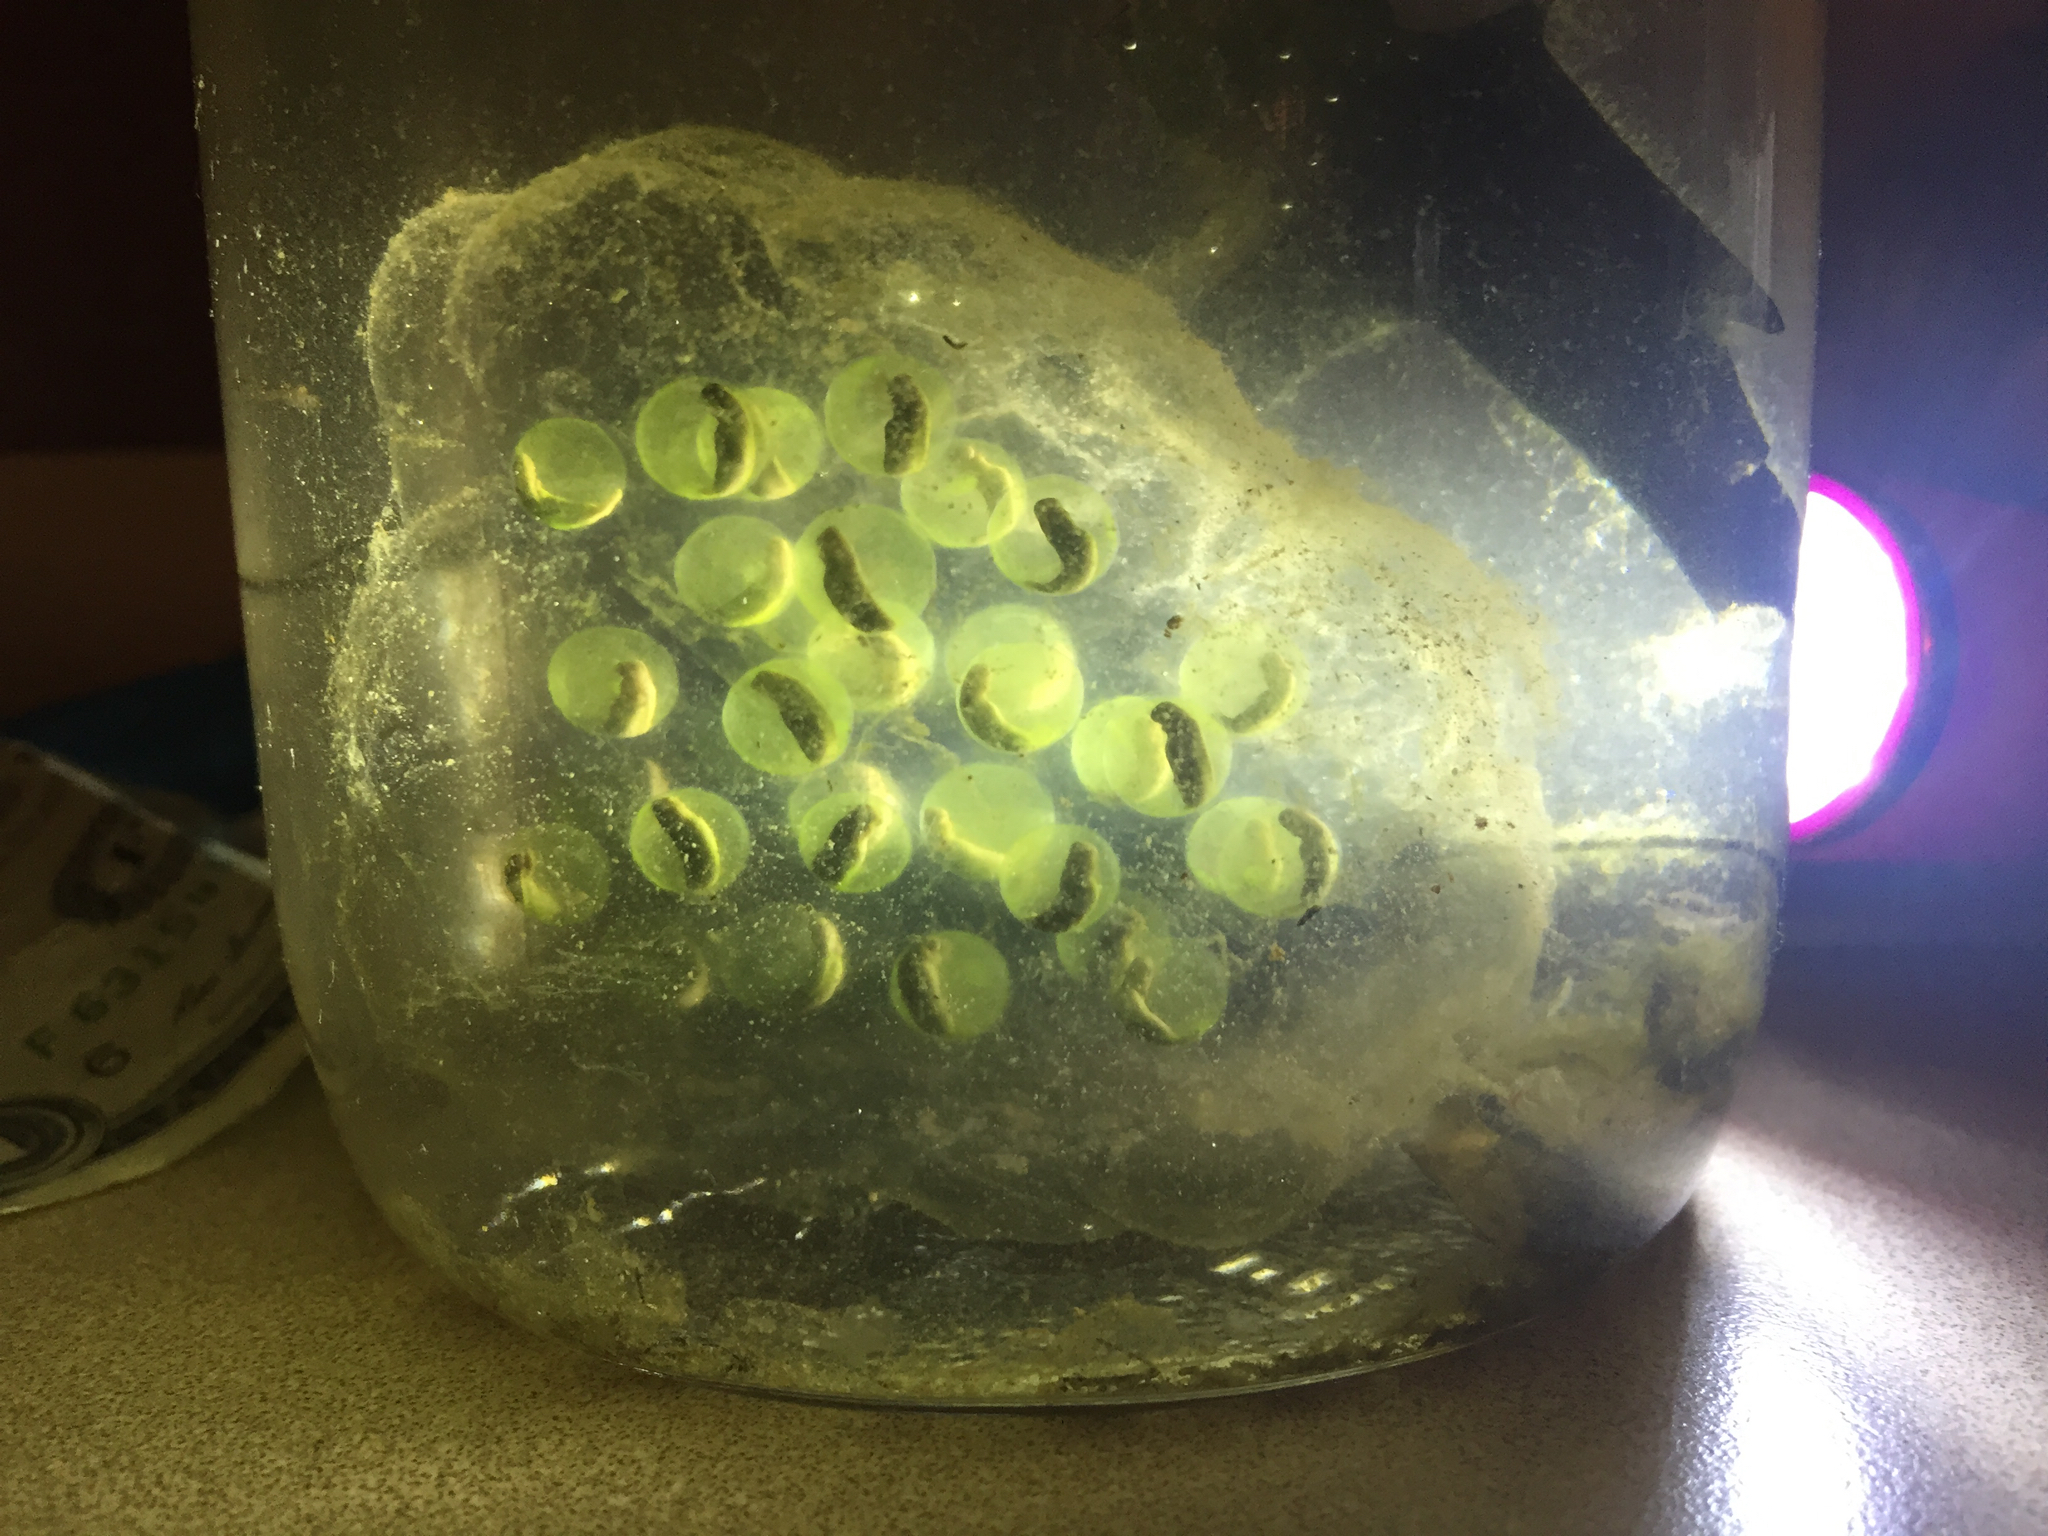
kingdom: Animalia
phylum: Chordata
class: Amphibia
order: Caudata
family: Ambystomatidae
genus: Ambystoma
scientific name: Ambystoma maculatum
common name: Spotted salamander
